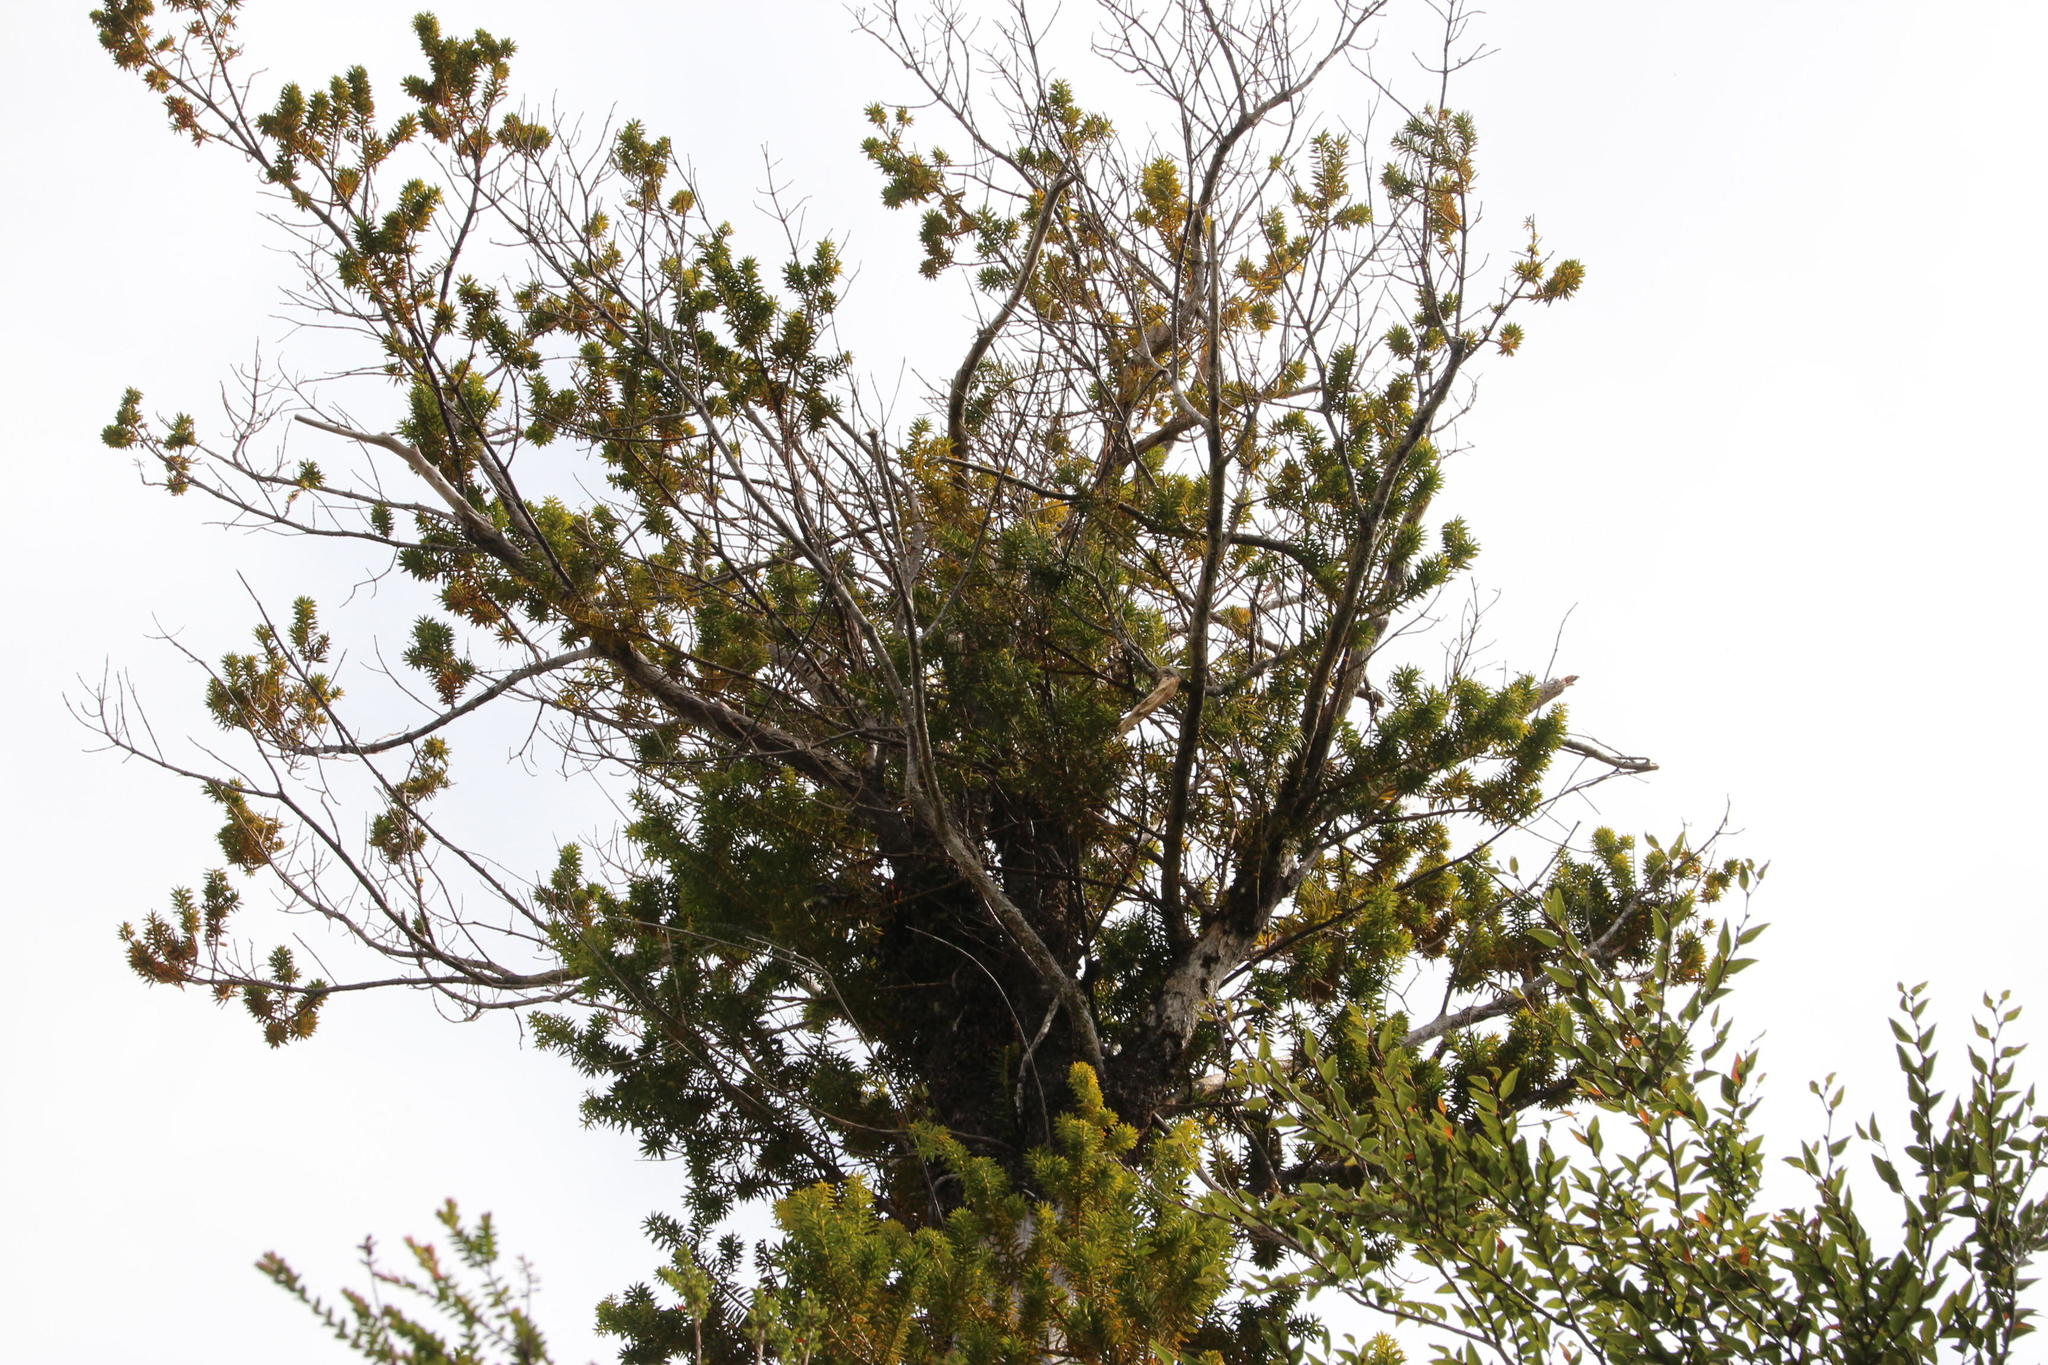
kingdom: Plantae
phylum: Tracheophyta
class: Pinopsida
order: Pinales
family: Podocarpaceae
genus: Podocarpus
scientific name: Podocarpus nubigenus
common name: Cloud podocarp
